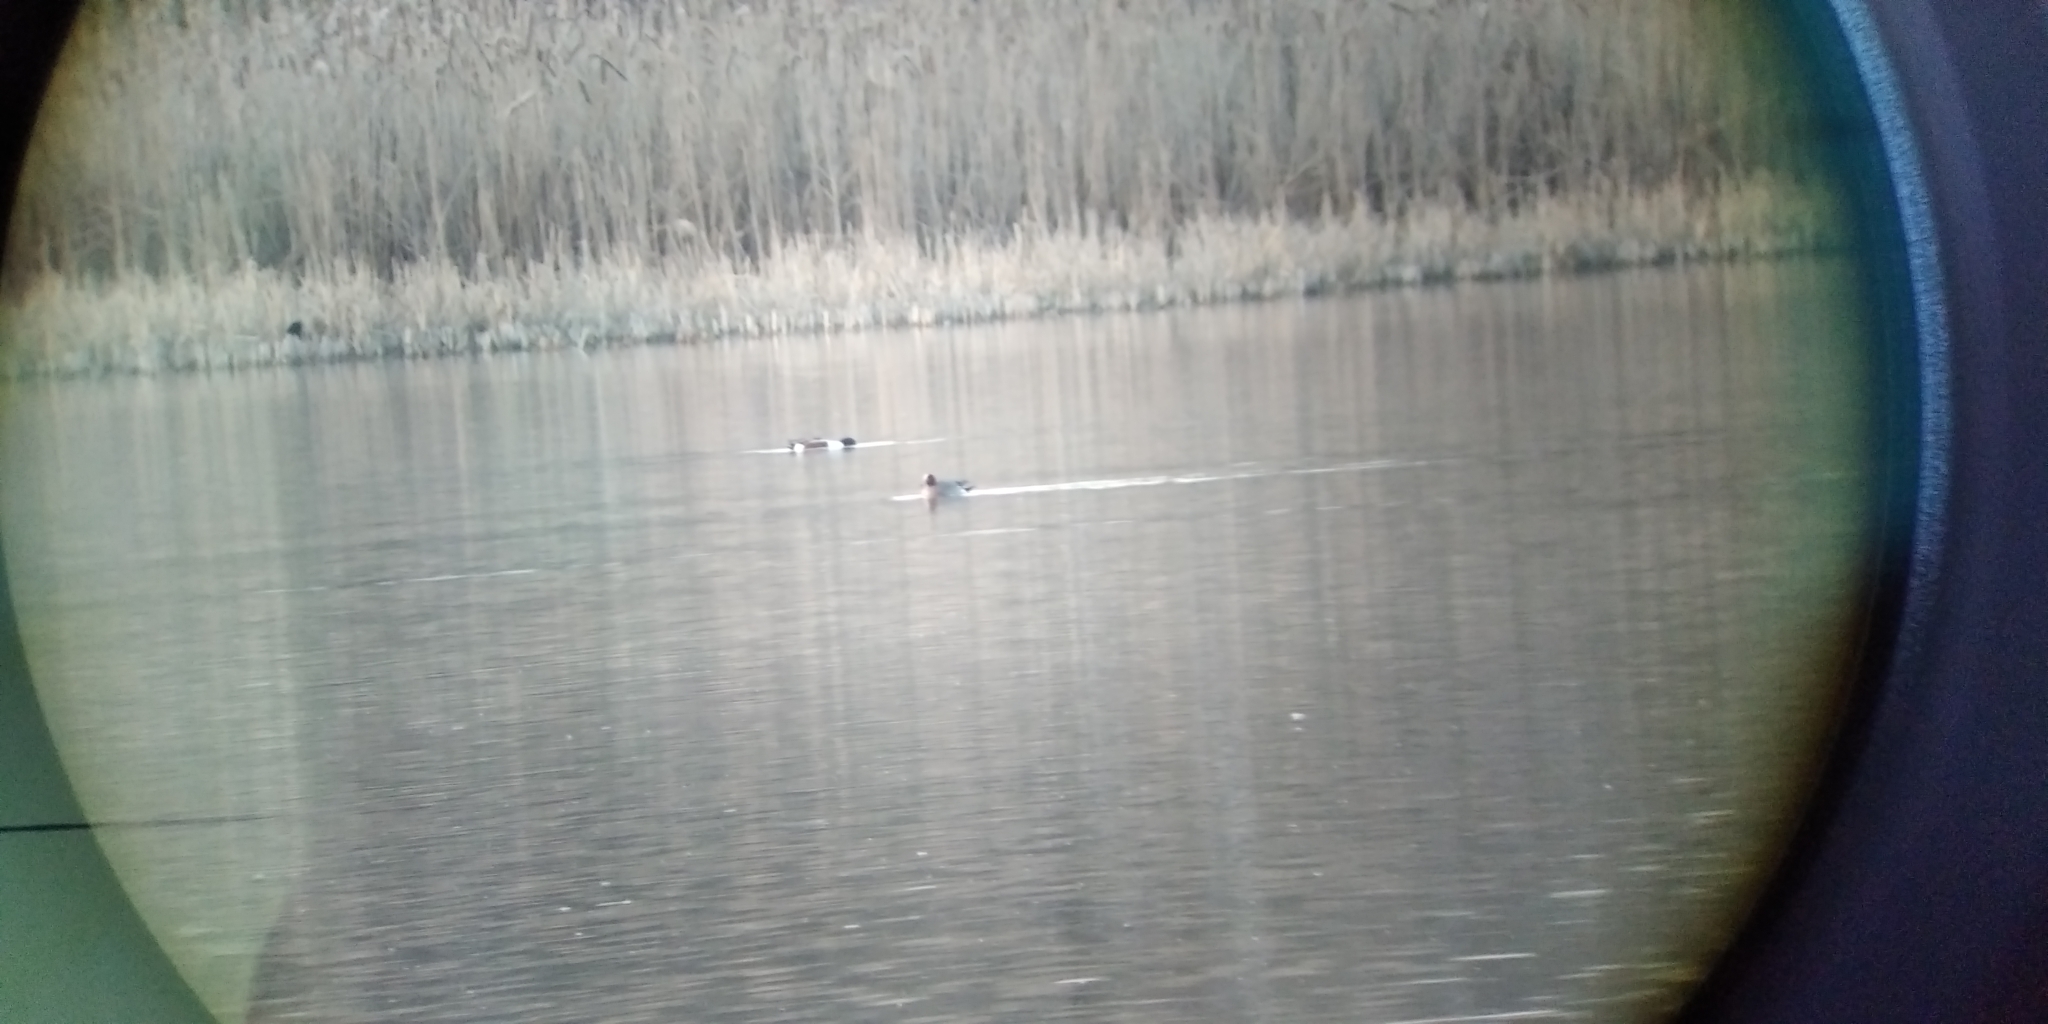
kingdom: Animalia
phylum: Chordata
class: Aves
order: Anseriformes
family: Anatidae
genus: Spatula
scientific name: Spatula clypeata
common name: Northern shoveler
